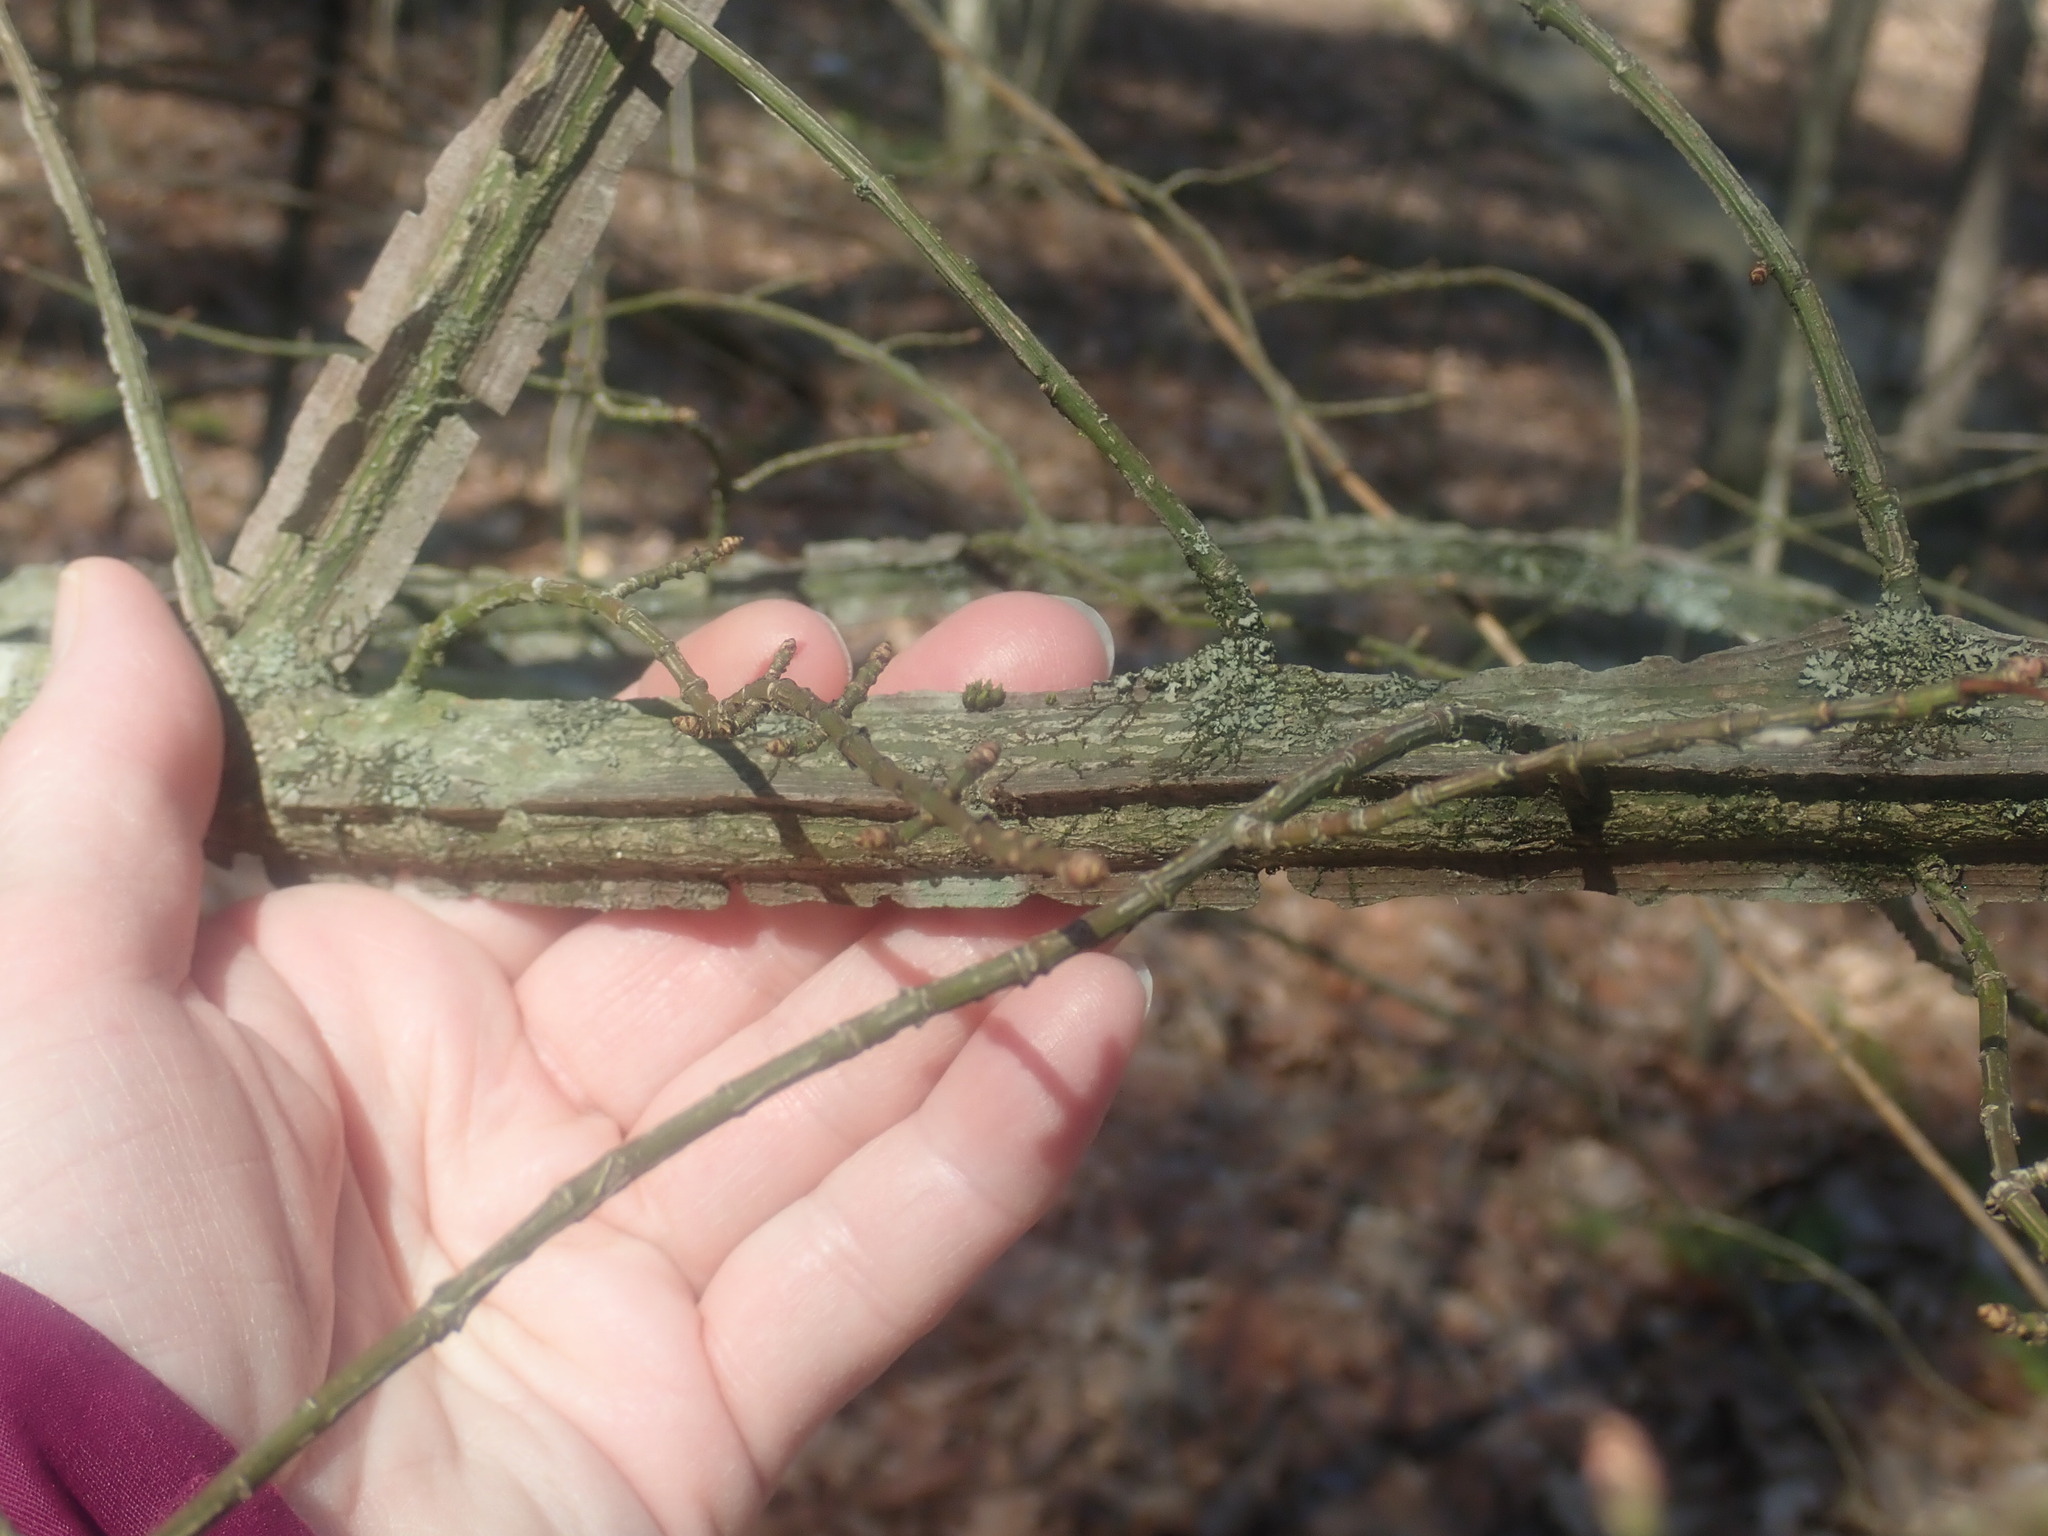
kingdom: Plantae
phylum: Tracheophyta
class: Magnoliopsida
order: Celastrales
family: Celastraceae
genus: Euonymus
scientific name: Euonymus alatus
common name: Winged euonymus
